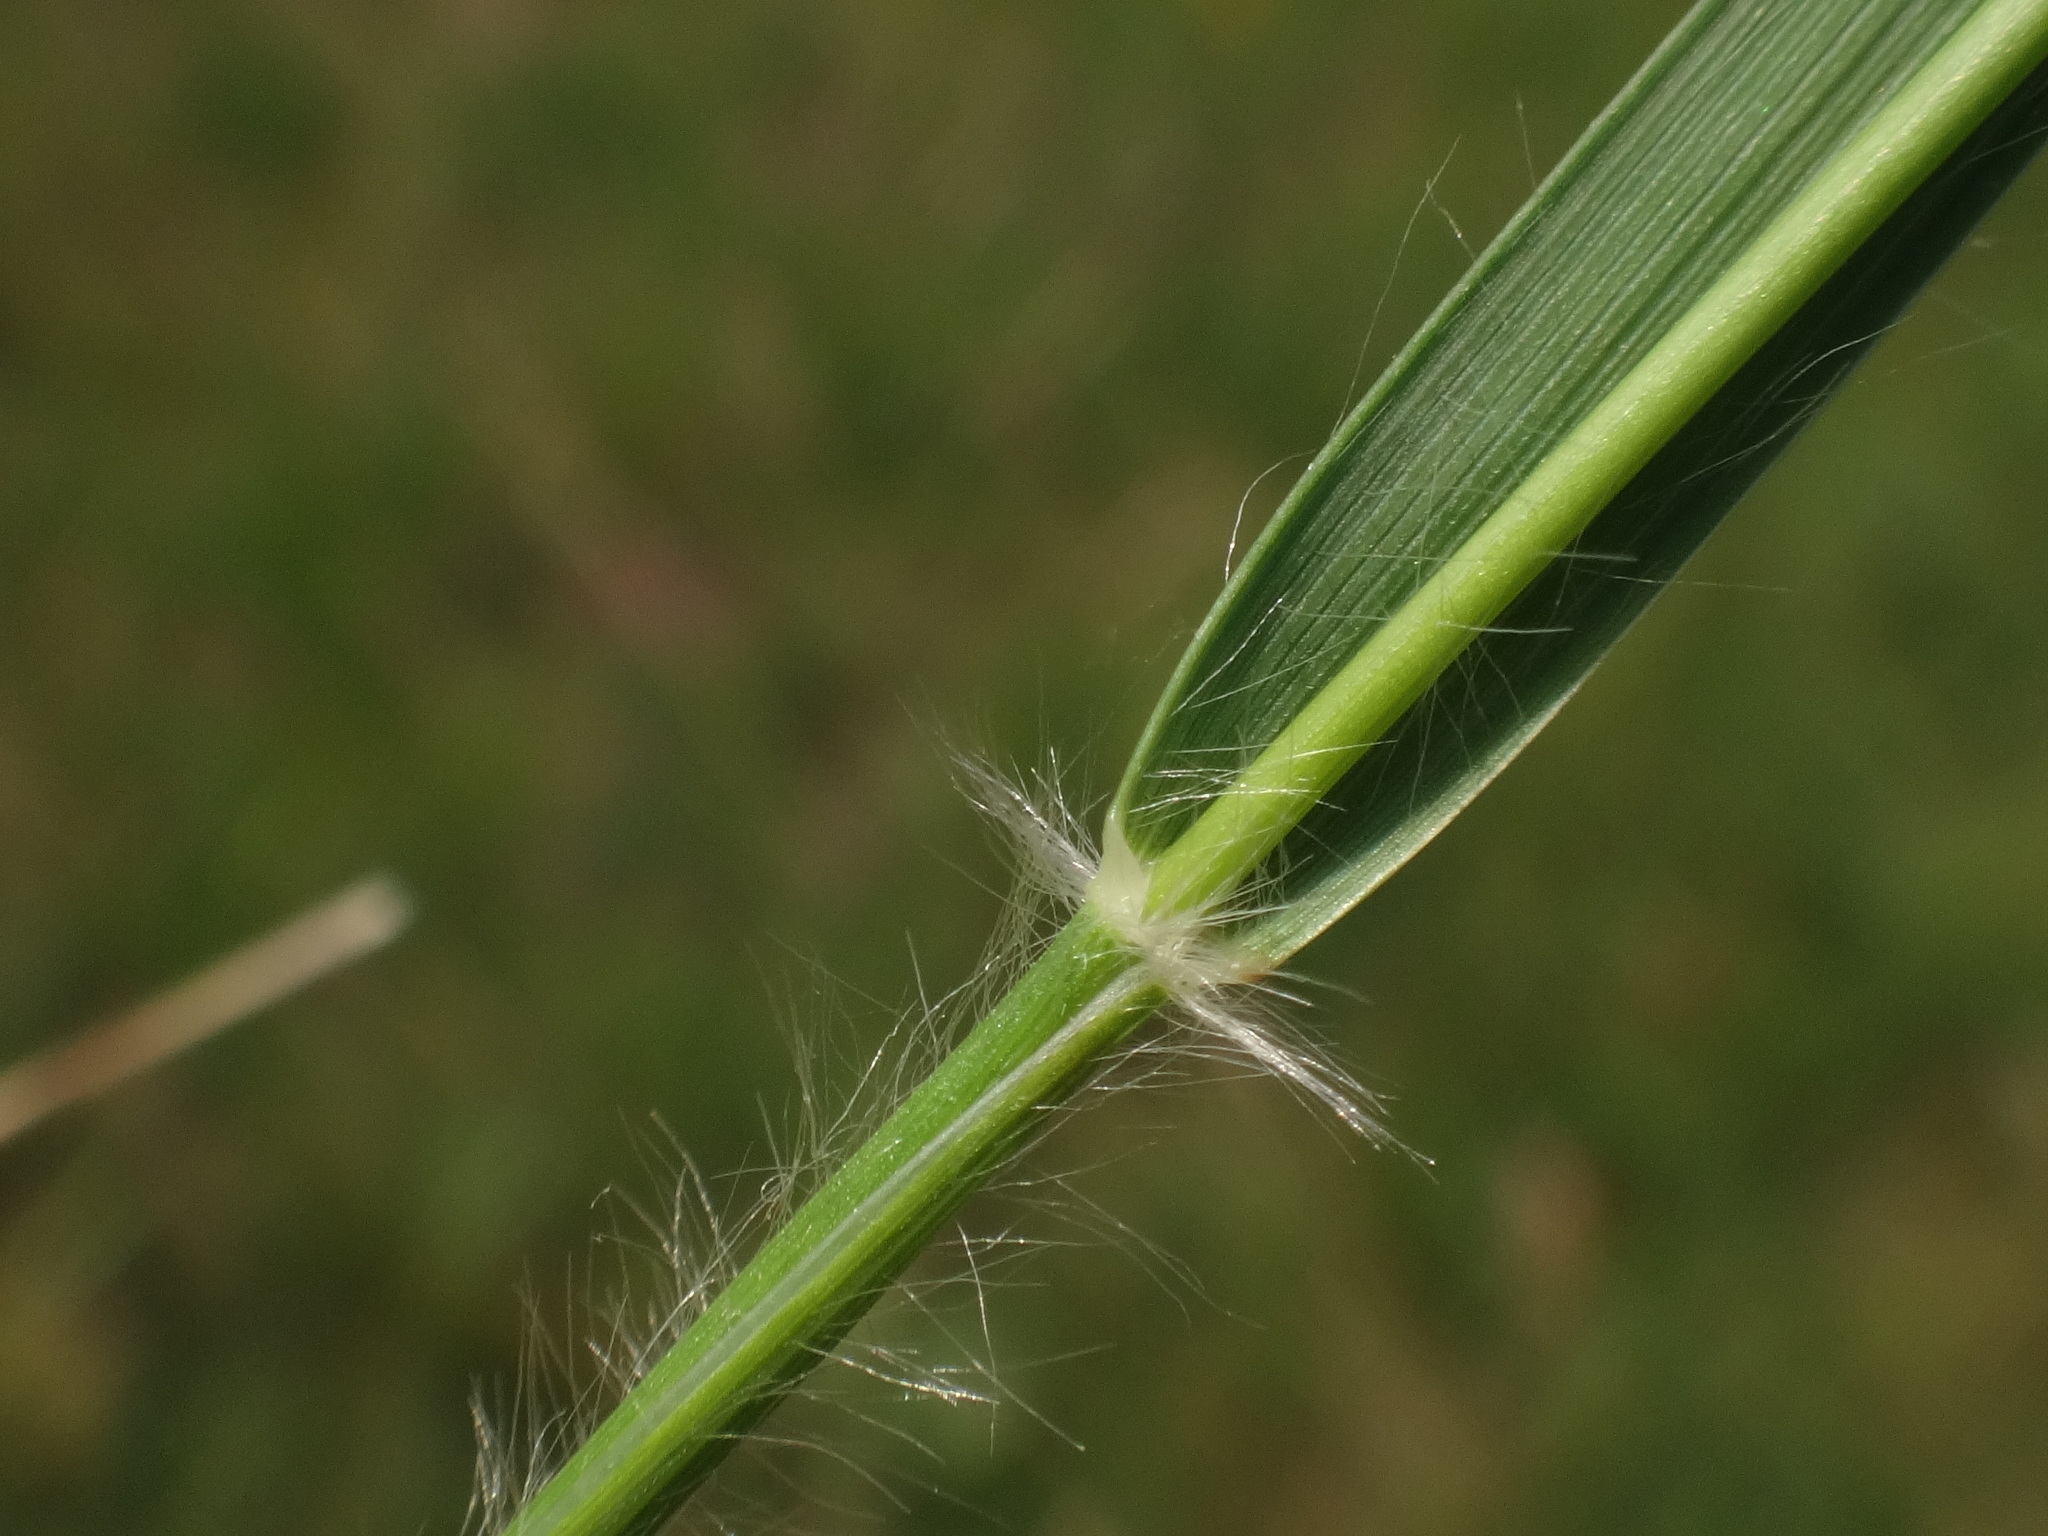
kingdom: Plantae
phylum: Tracheophyta
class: Liliopsida
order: Poales
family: Poaceae
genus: Danthonia
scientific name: Danthonia decumbens
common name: Common heathgrass
